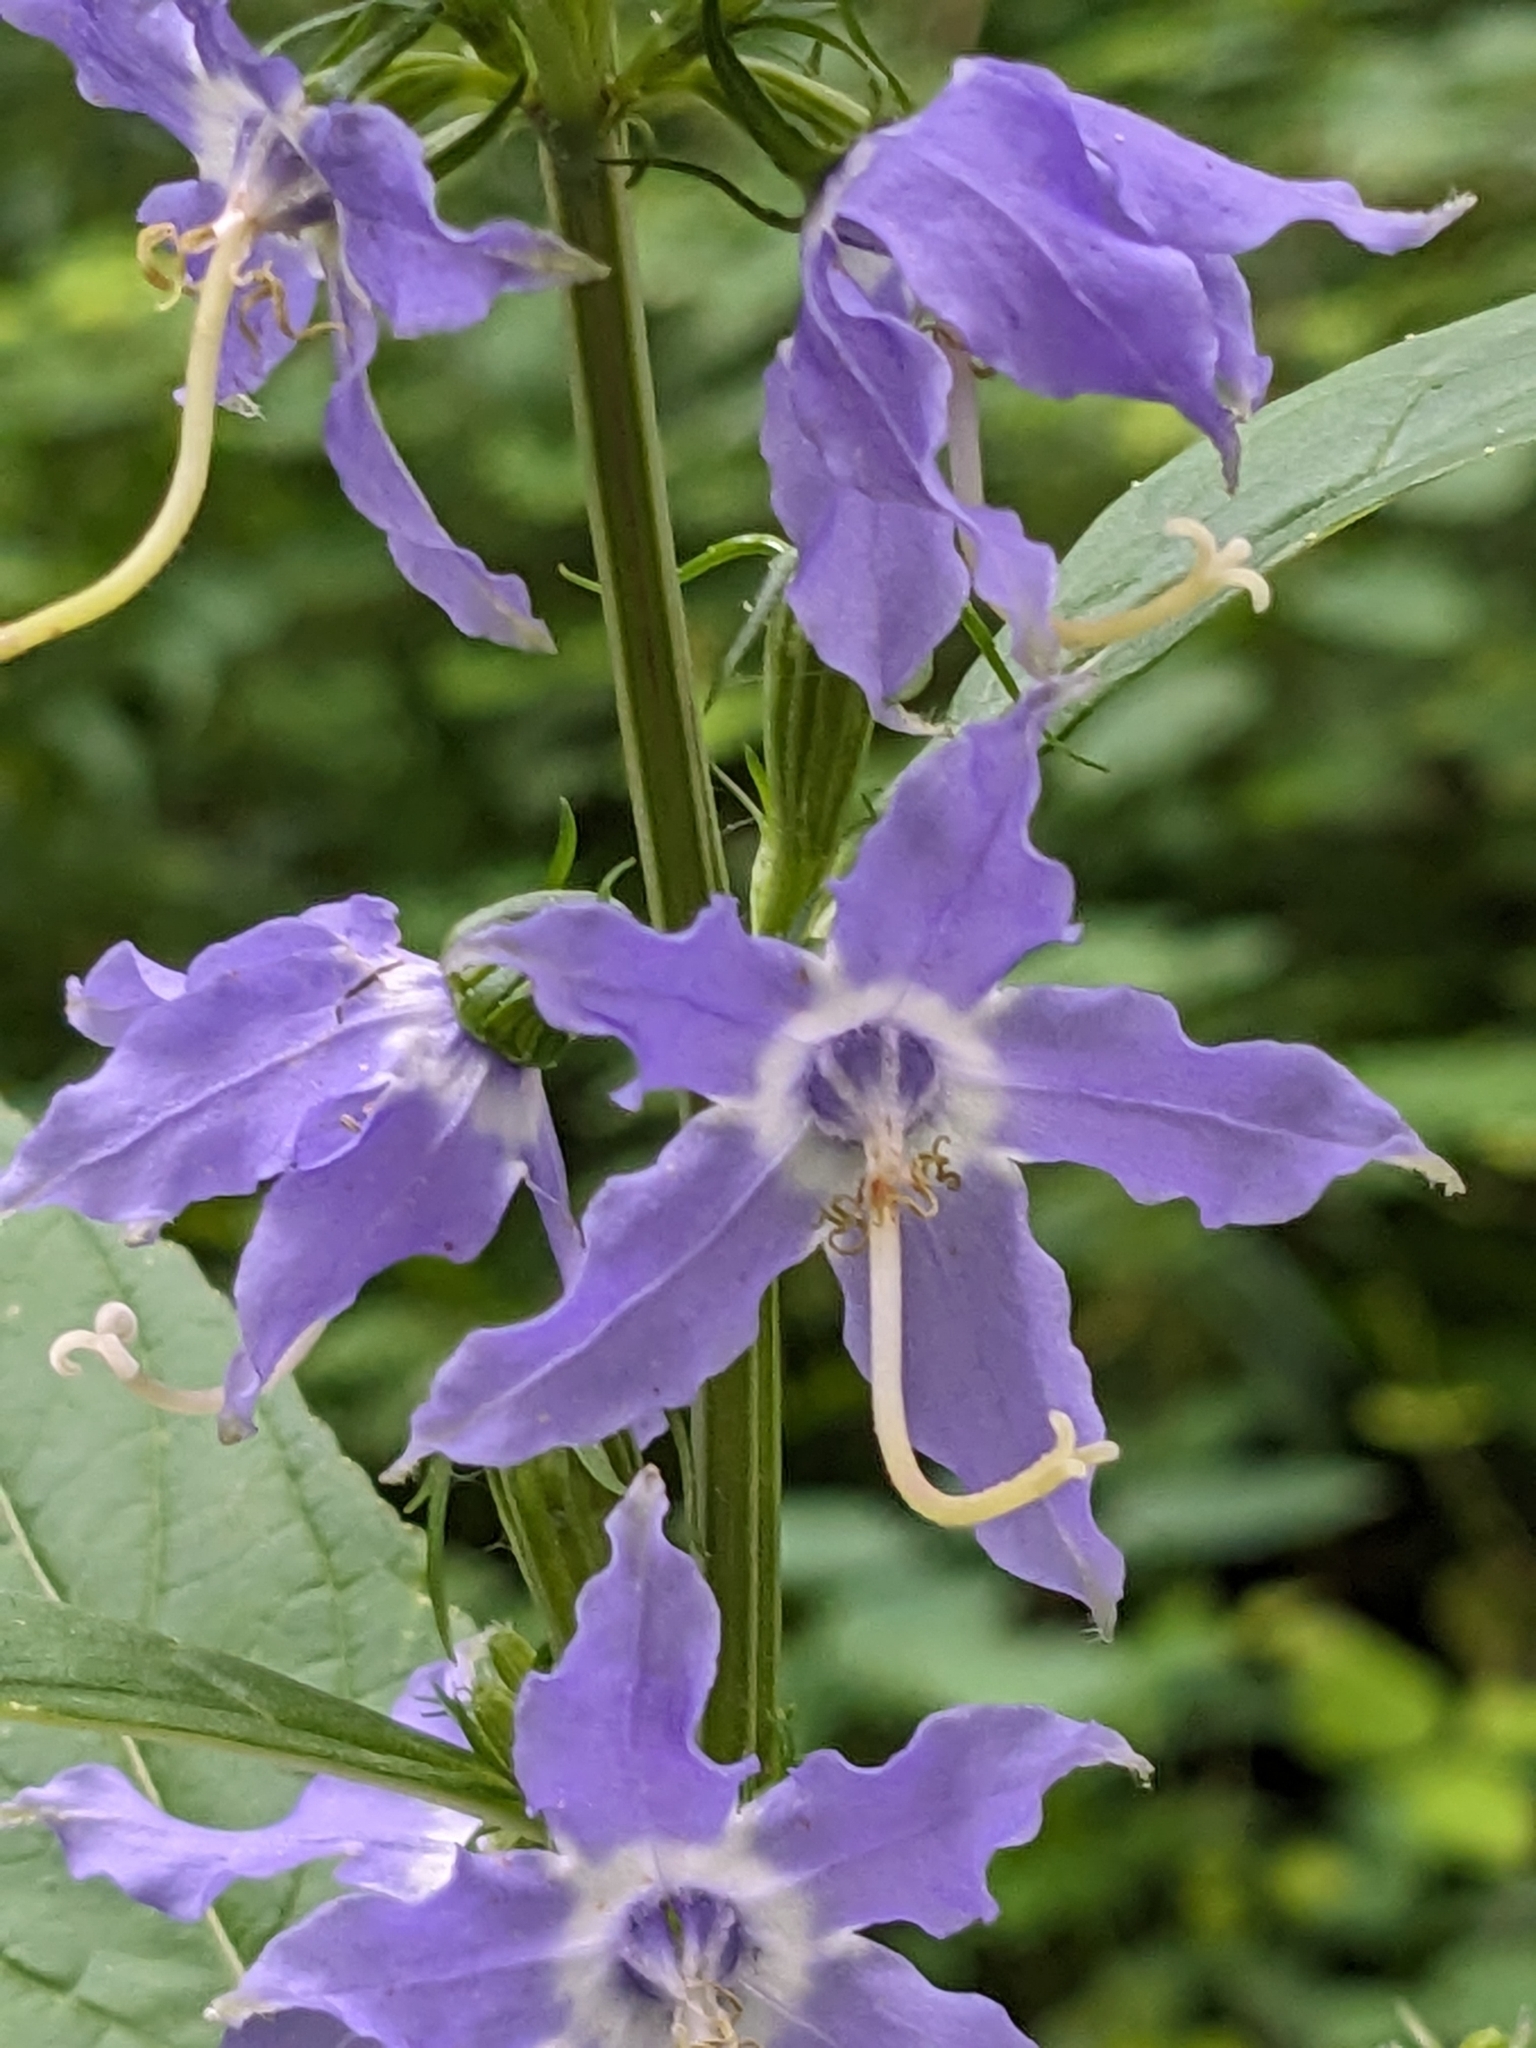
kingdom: Plantae
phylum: Tracheophyta
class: Magnoliopsida
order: Asterales
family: Campanulaceae
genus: Campanulastrum
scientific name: Campanulastrum americanum
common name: American bellflower
